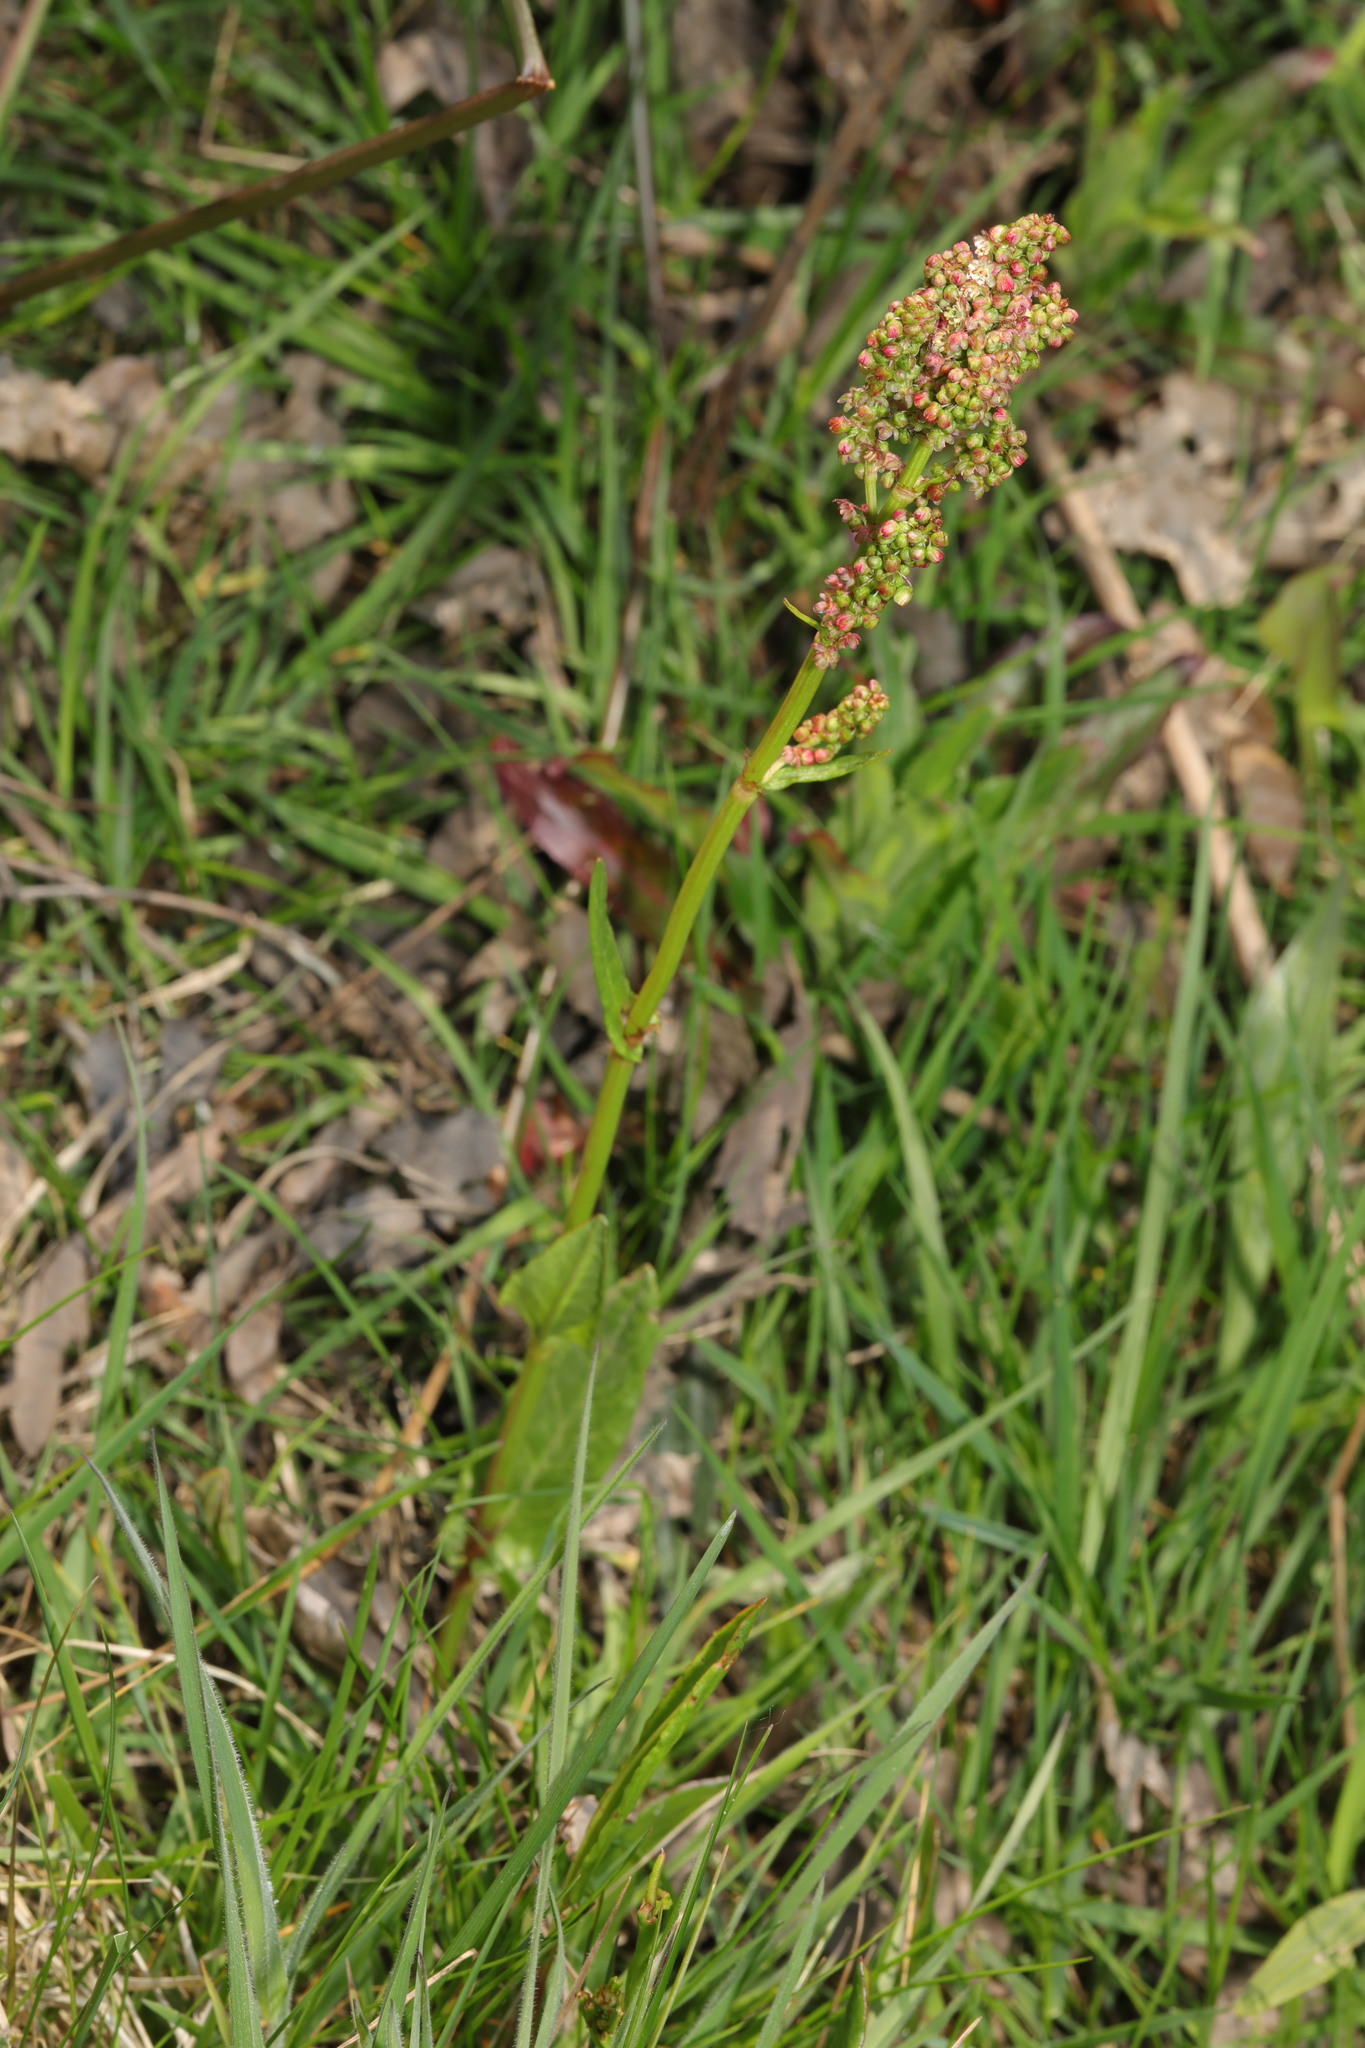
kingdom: Plantae
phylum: Tracheophyta
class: Magnoliopsida
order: Caryophyllales
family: Polygonaceae
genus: Rumex
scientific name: Rumex acetosa
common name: Garden sorrel
